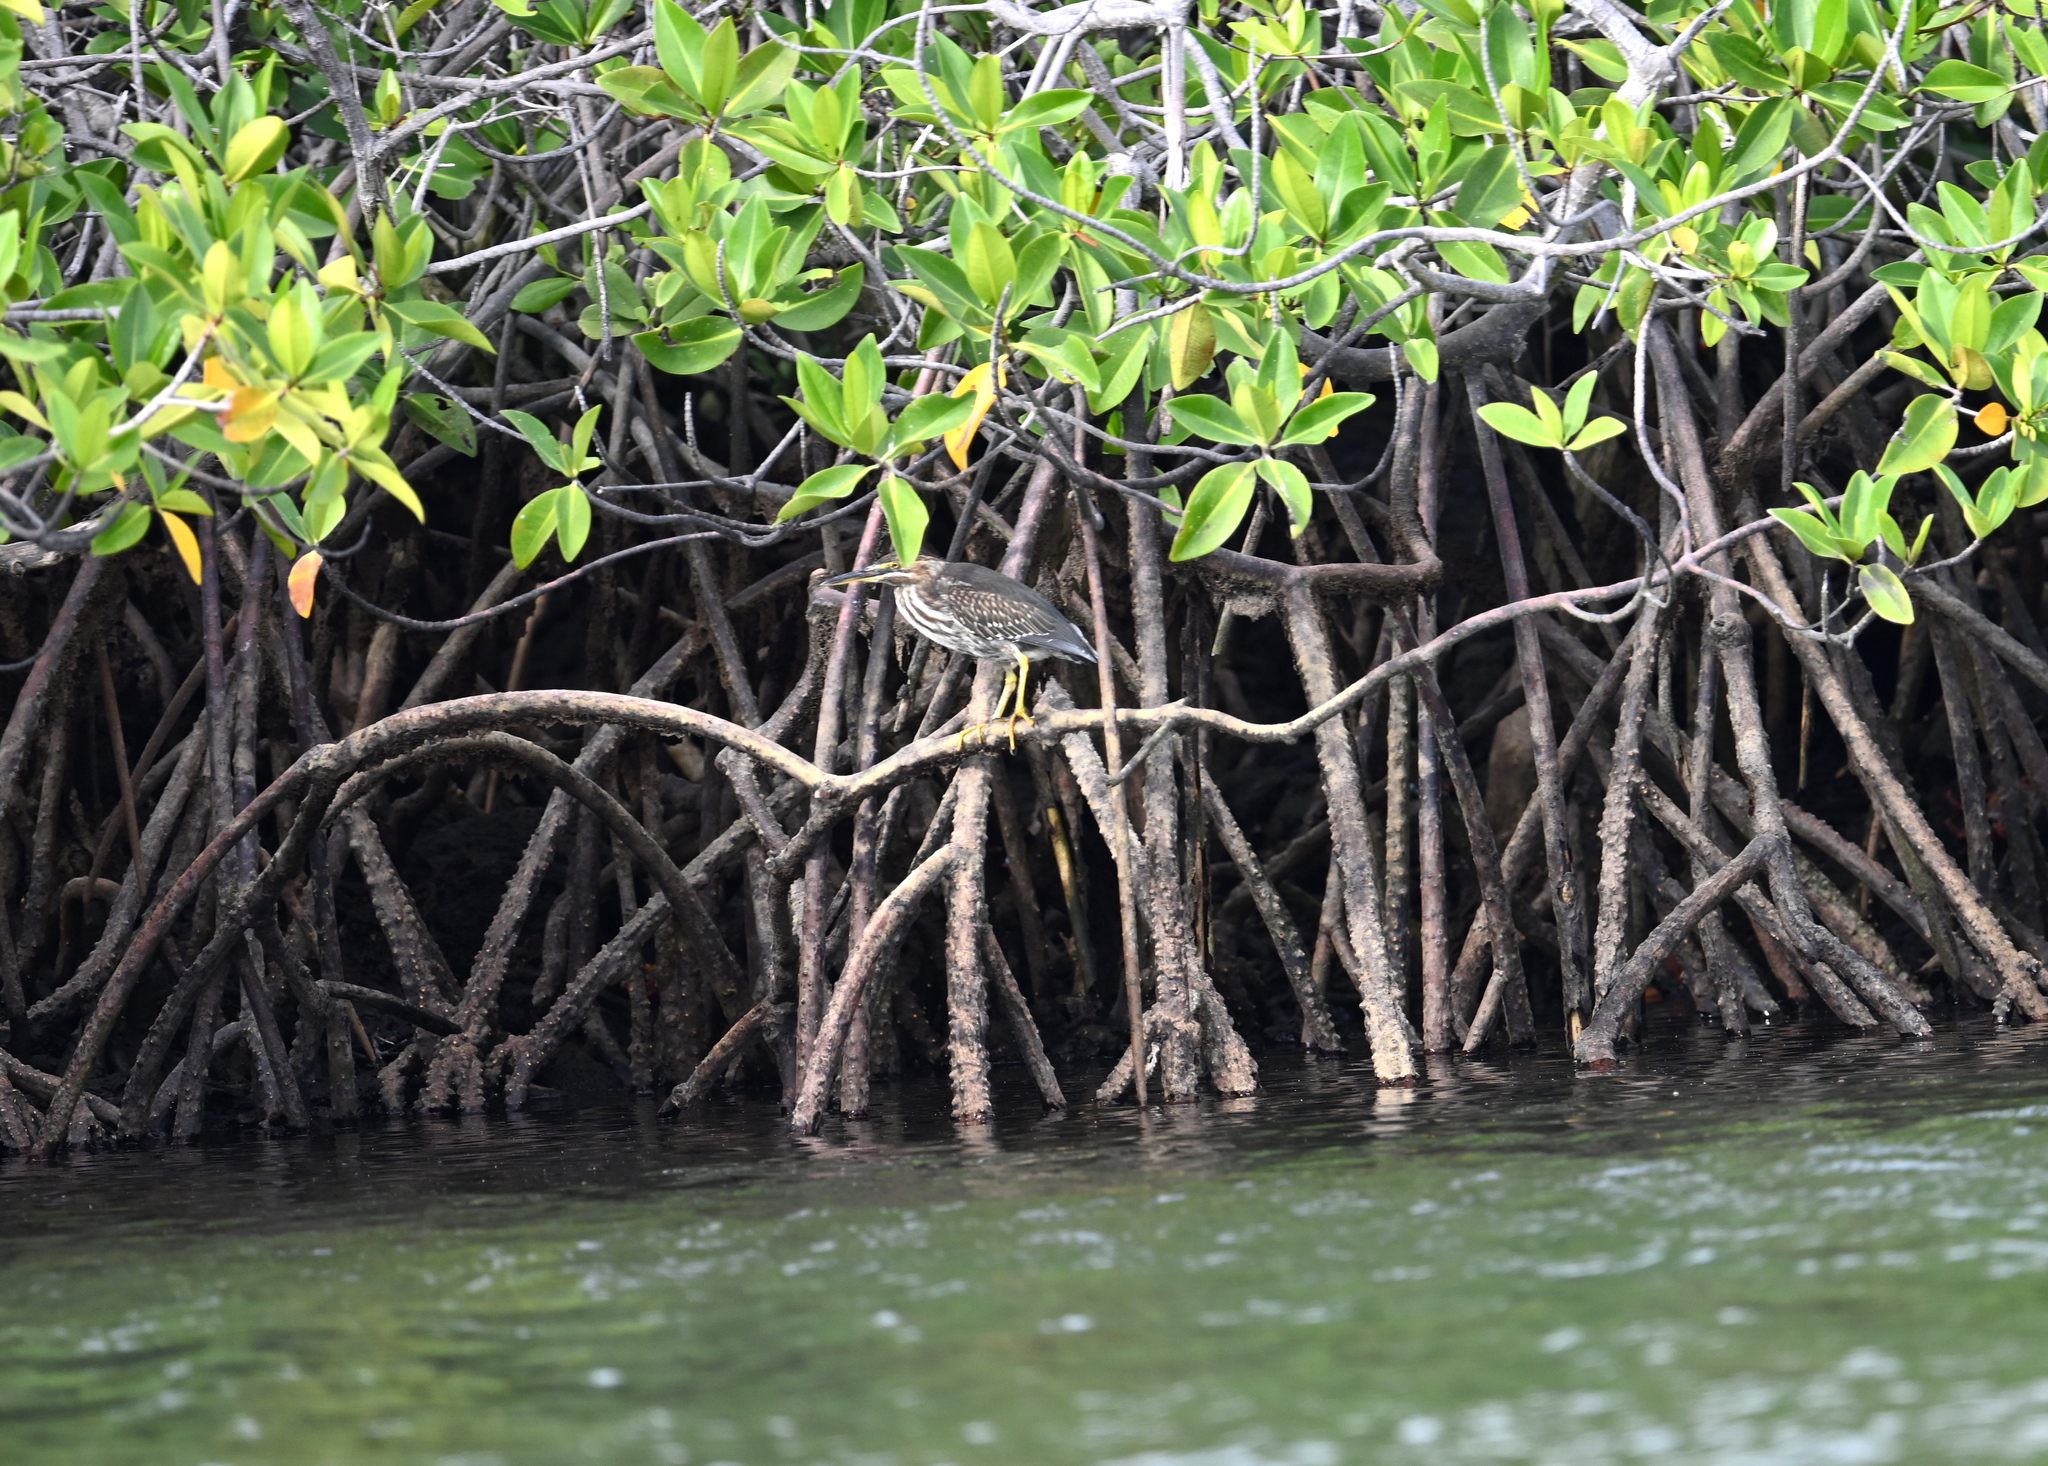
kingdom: Animalia
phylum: Chordata
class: Aves
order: Pelecaniformes
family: Ardeidae
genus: Butorides
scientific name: Butorides striata
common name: Striated heron
